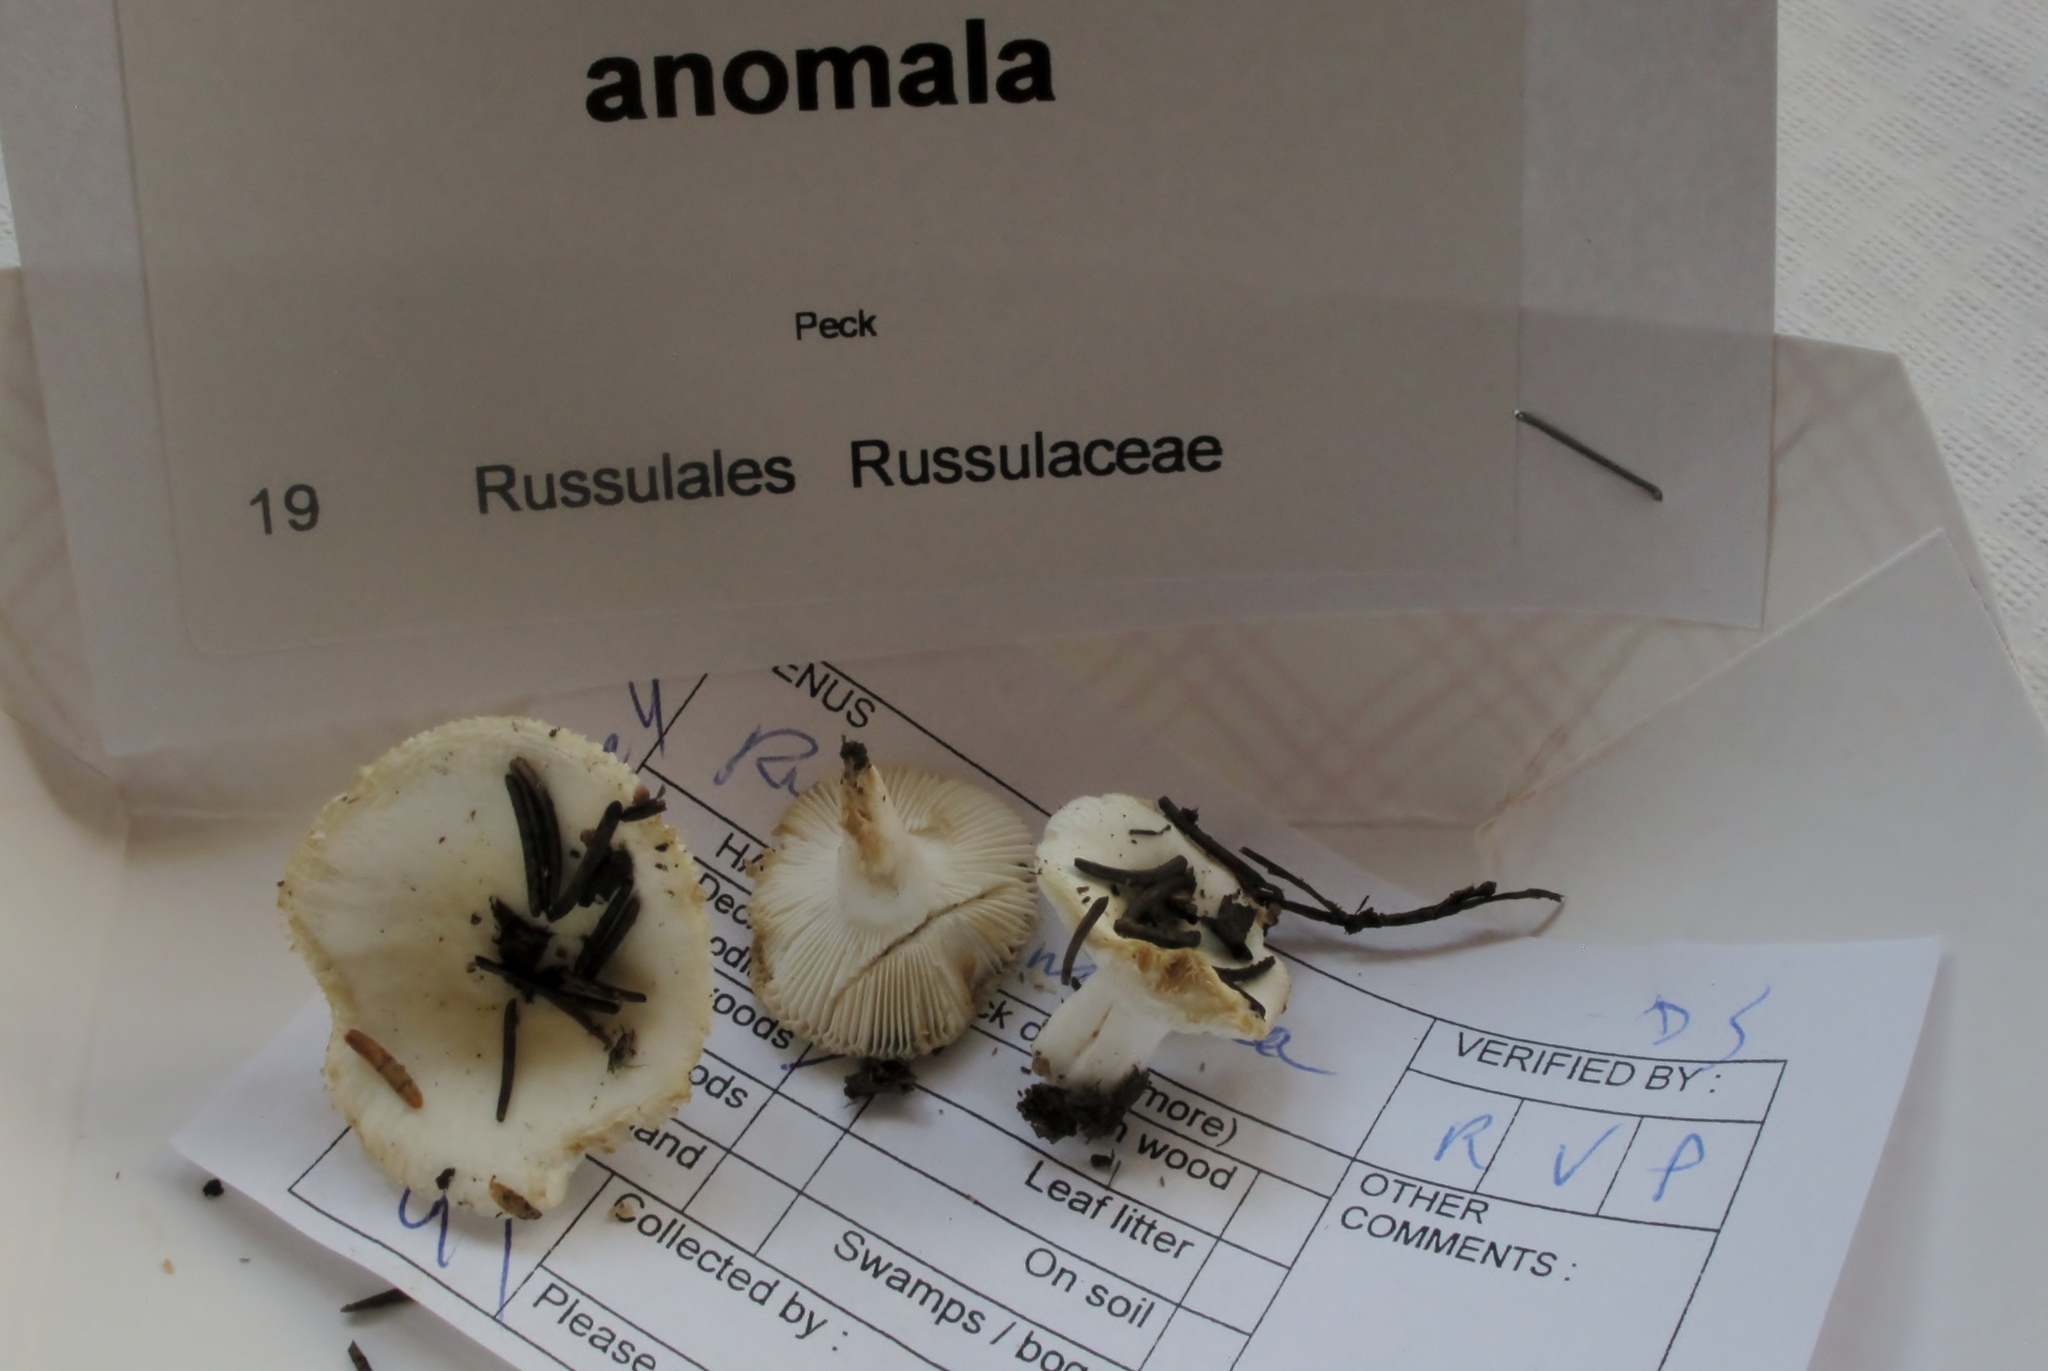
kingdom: Fungi
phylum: Basidiomycota
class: Agaricomycetes
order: Russulales
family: Russulaceae
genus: Russula
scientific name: Russula
